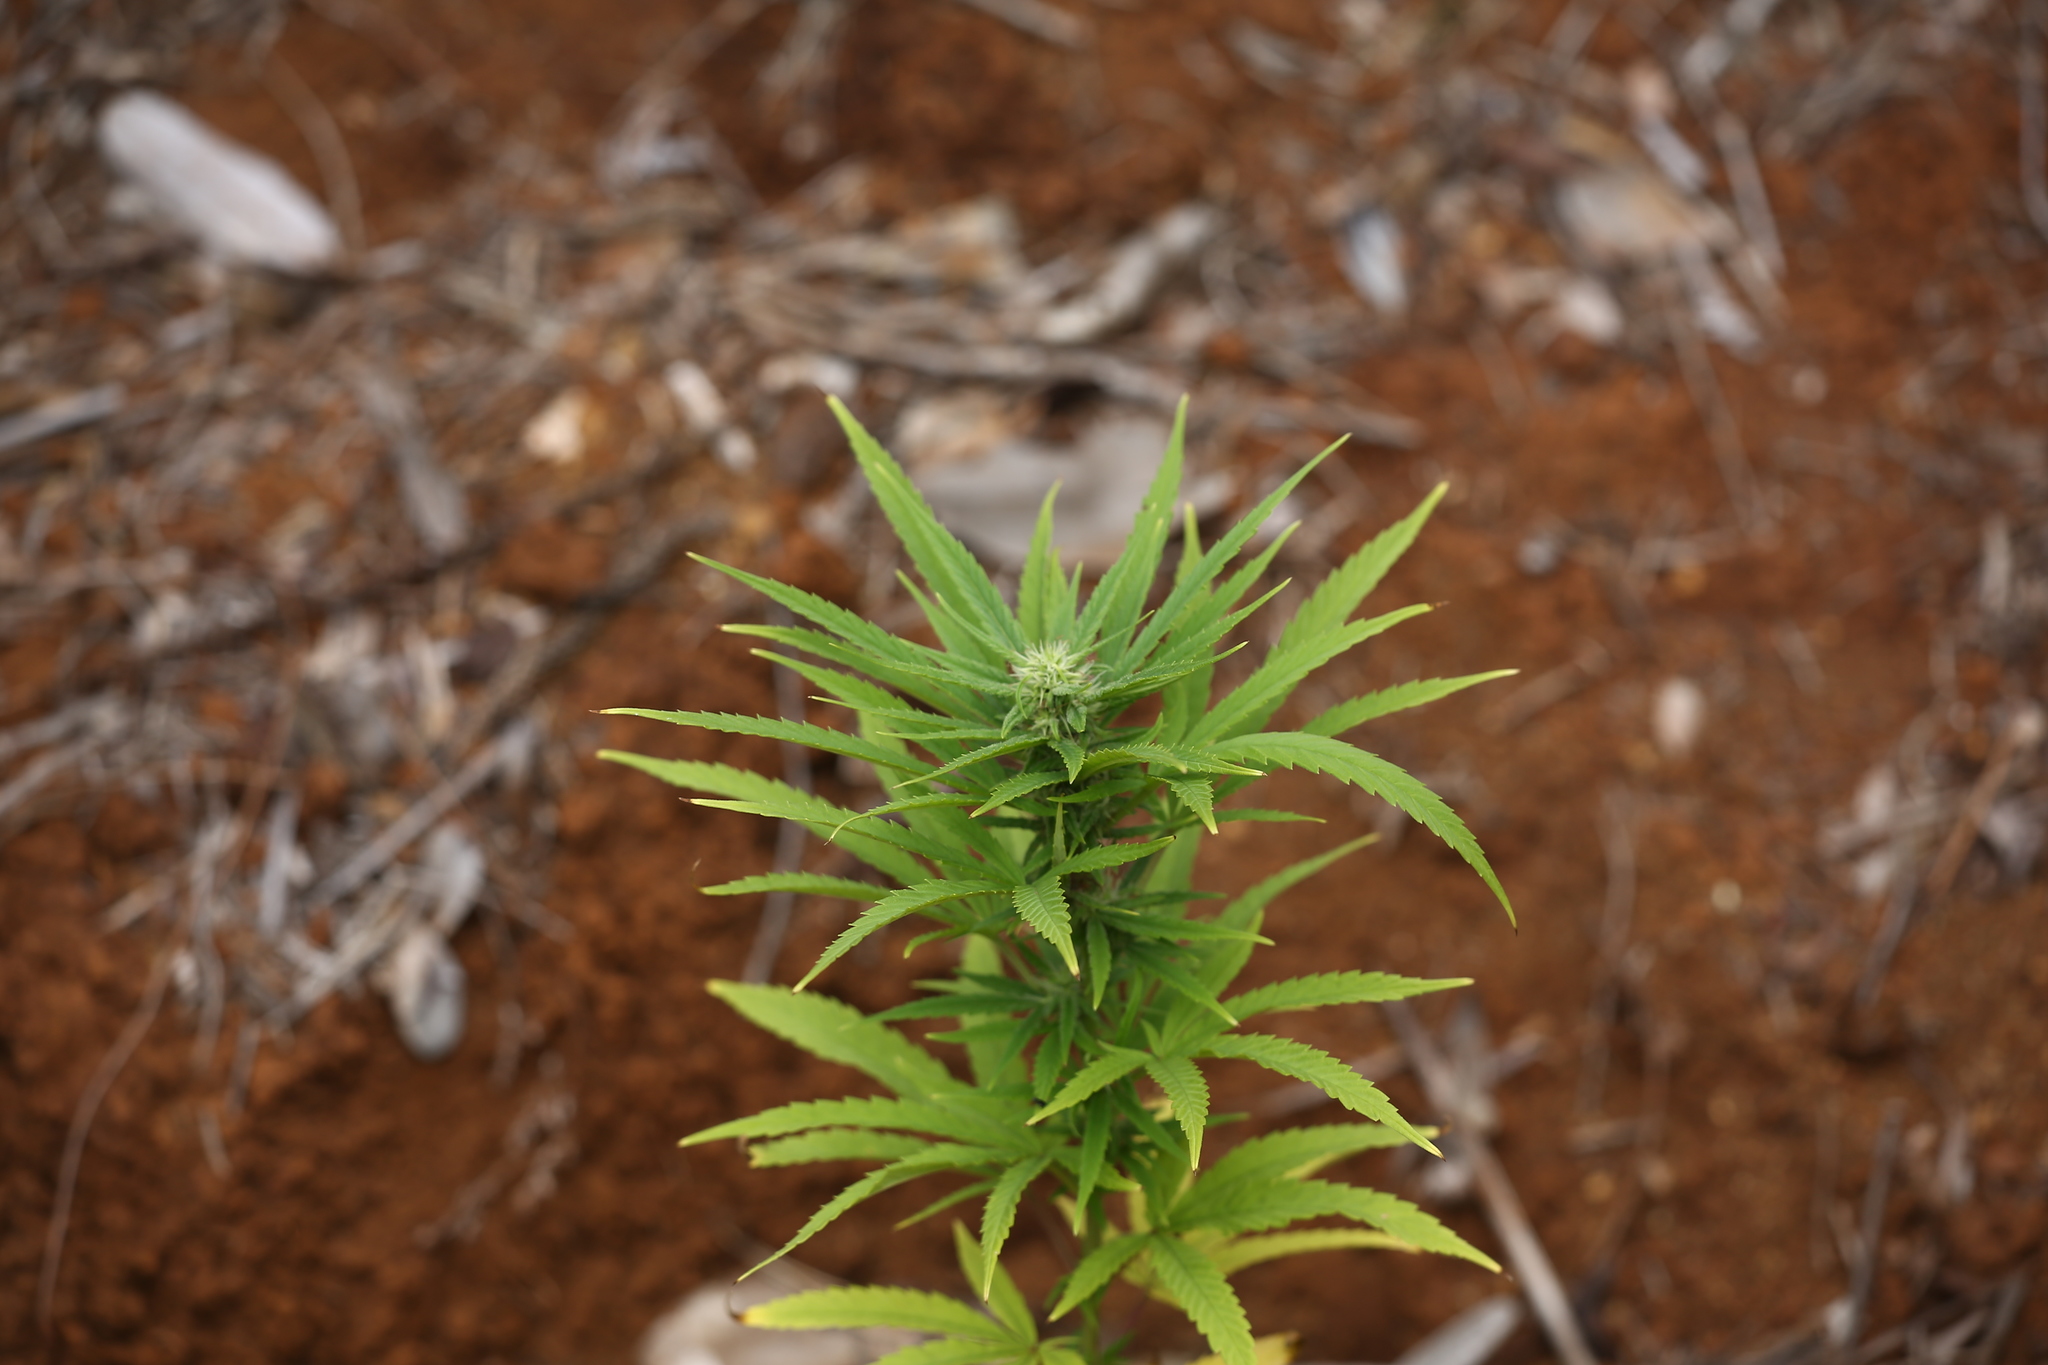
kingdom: Plantae
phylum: Tracheophyta
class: Magnoliopsida
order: Rosales
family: Cannabaceae
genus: Cannabis
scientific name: Cannabis sativa
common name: Hemp
